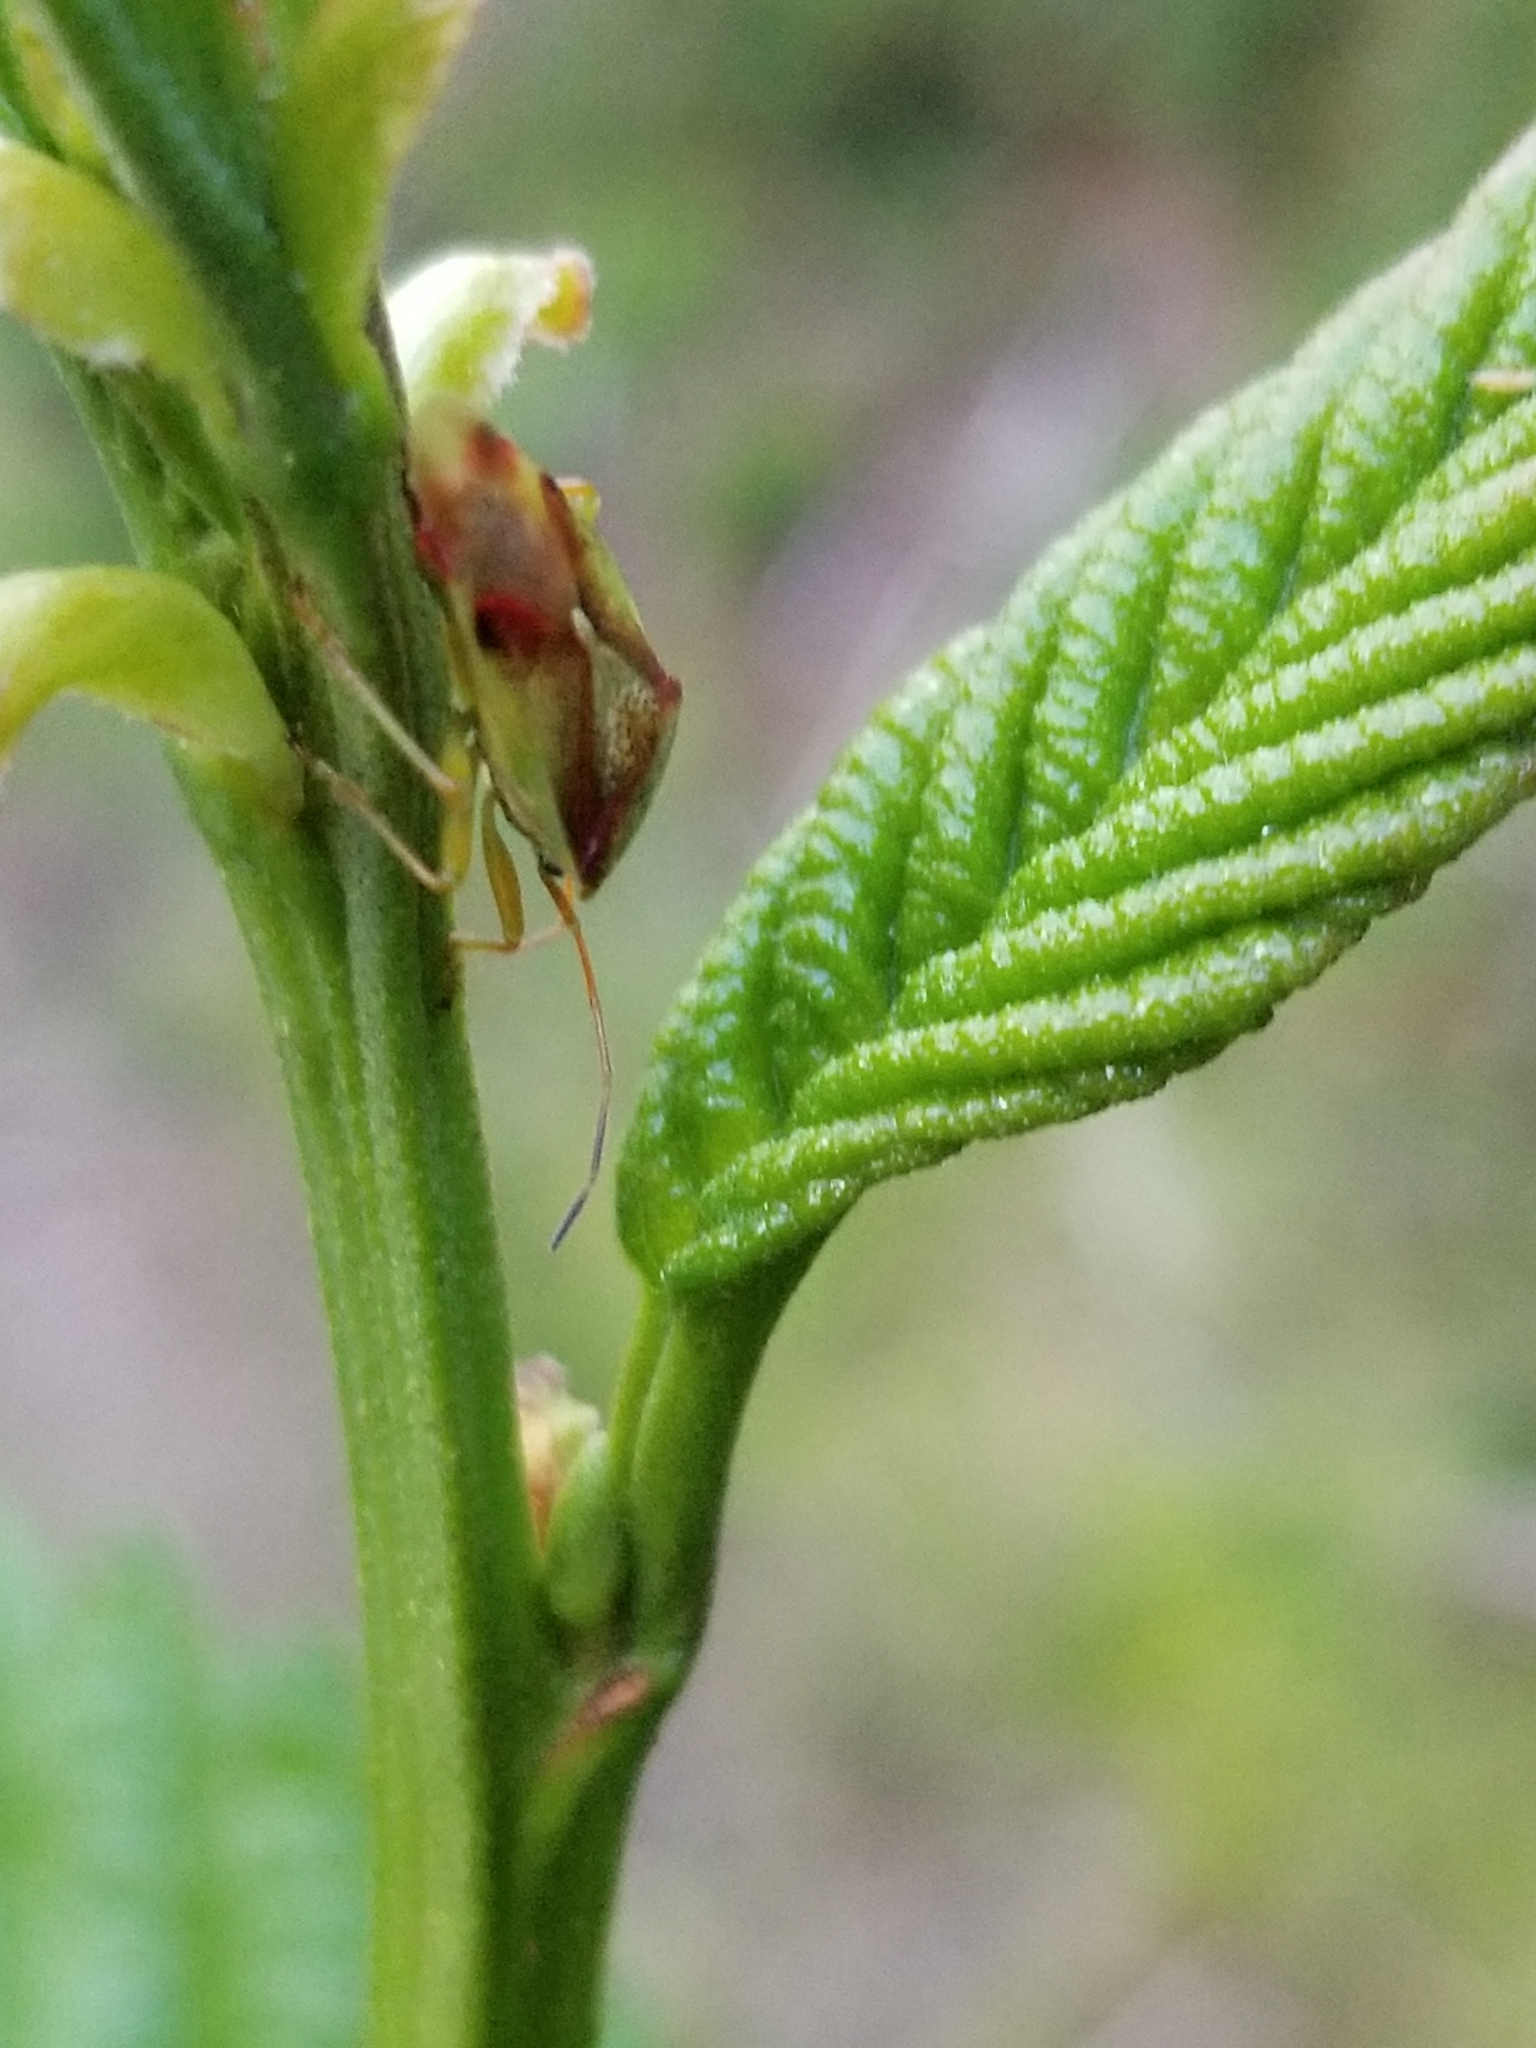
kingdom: Animalia
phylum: Arthropoda
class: Insecta
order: Hemiptera
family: Acanthosomatidae
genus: Elasmostethus
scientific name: Elasmostethus cruciatus
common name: Red-cross shield bug
